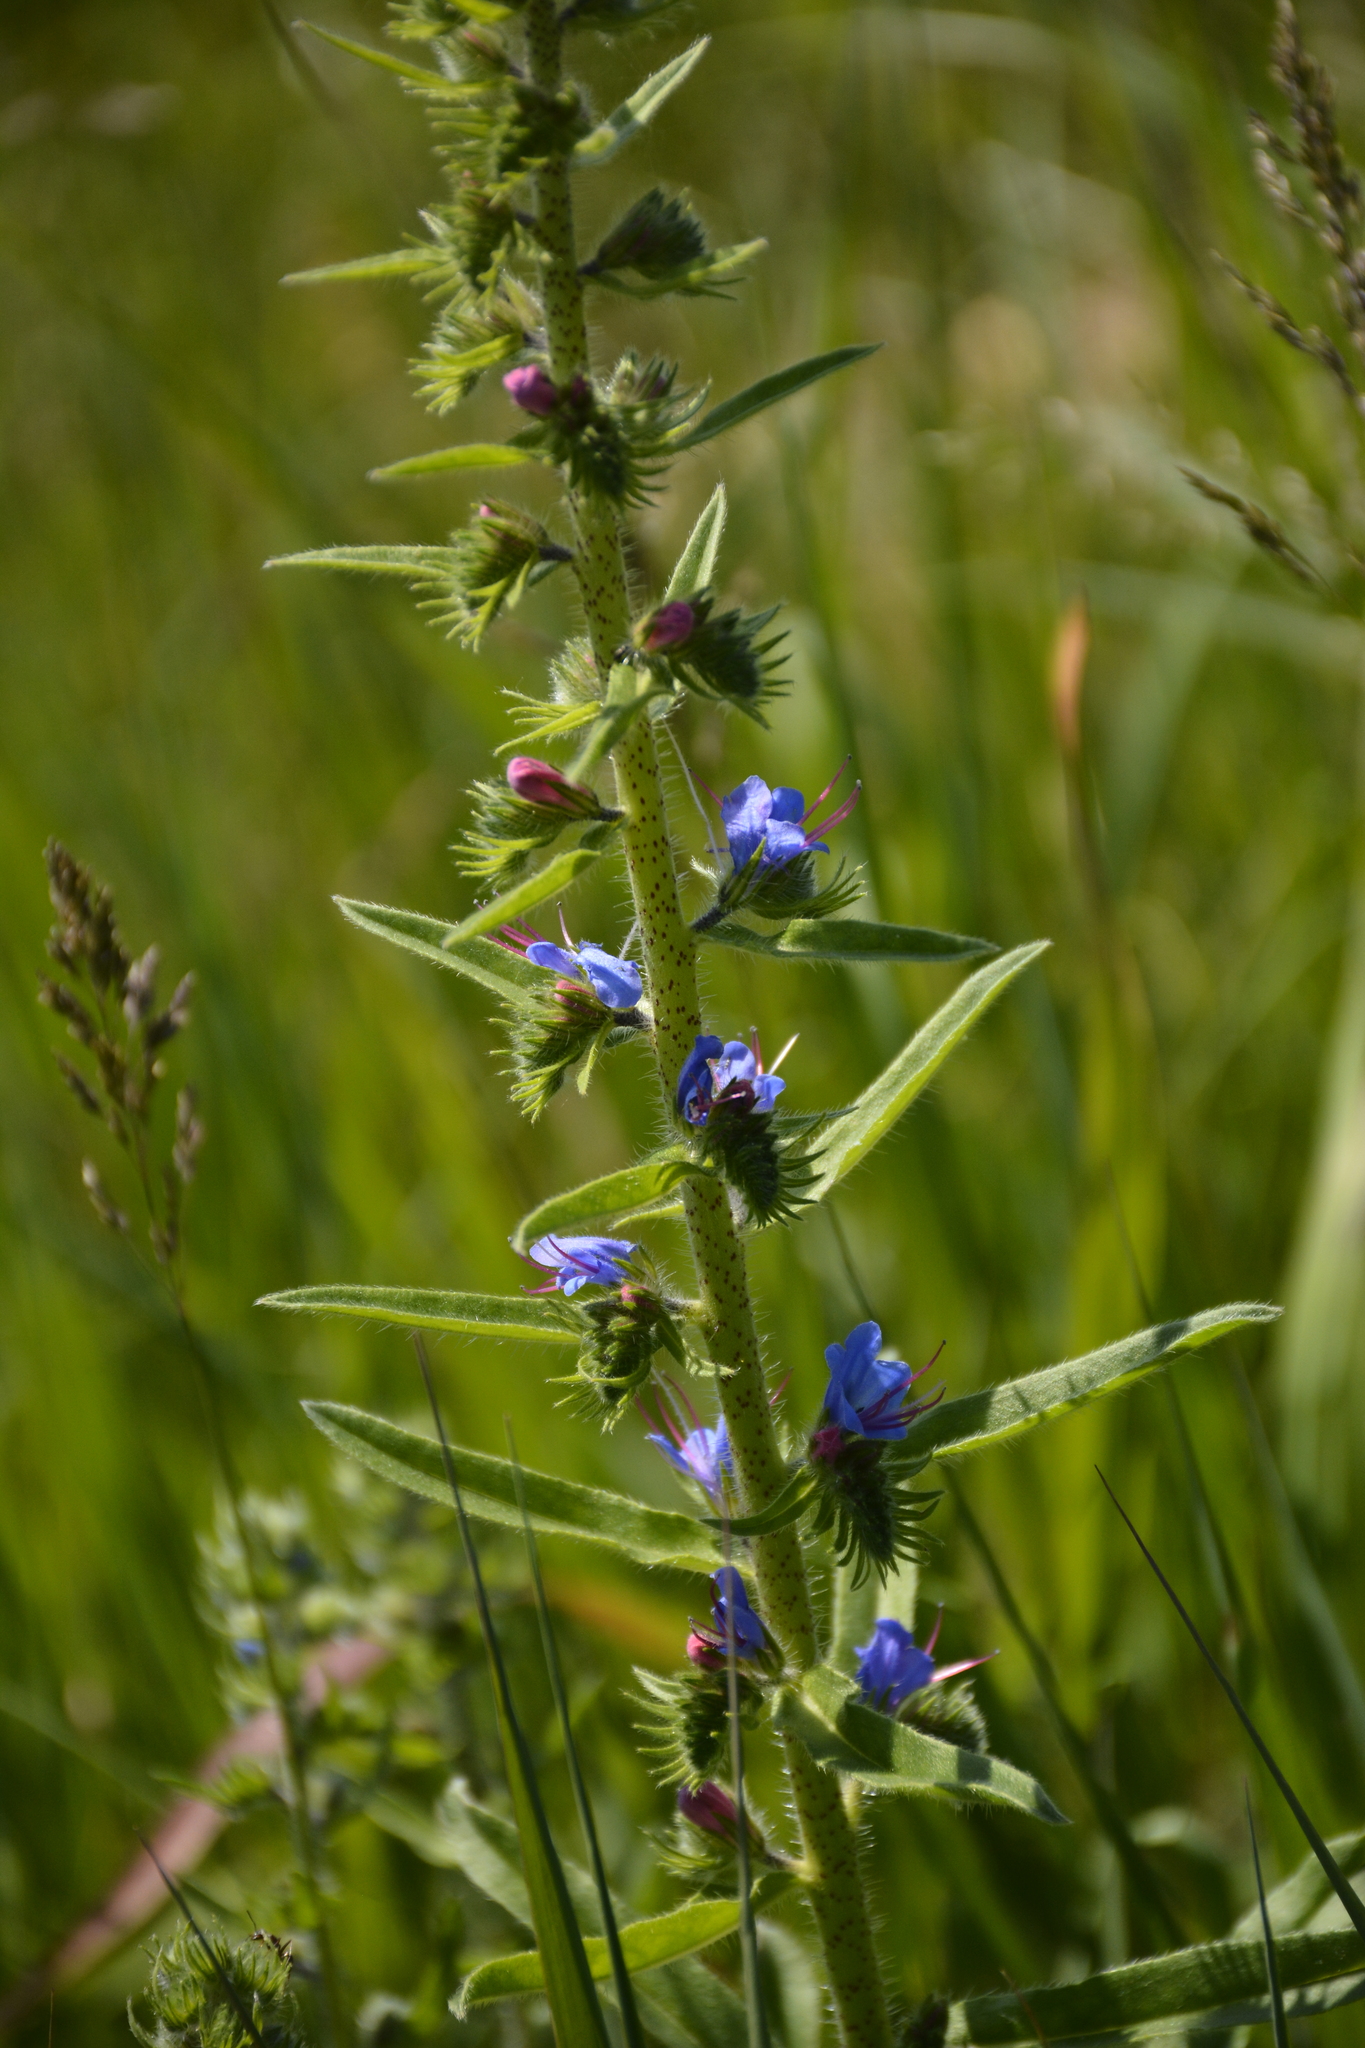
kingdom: Plantae
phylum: Tracheophyta
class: Magnoliopsida
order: Boraginales
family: Boraginaceae
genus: Echium
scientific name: Echium vulgare
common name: Common viper's bugloss
